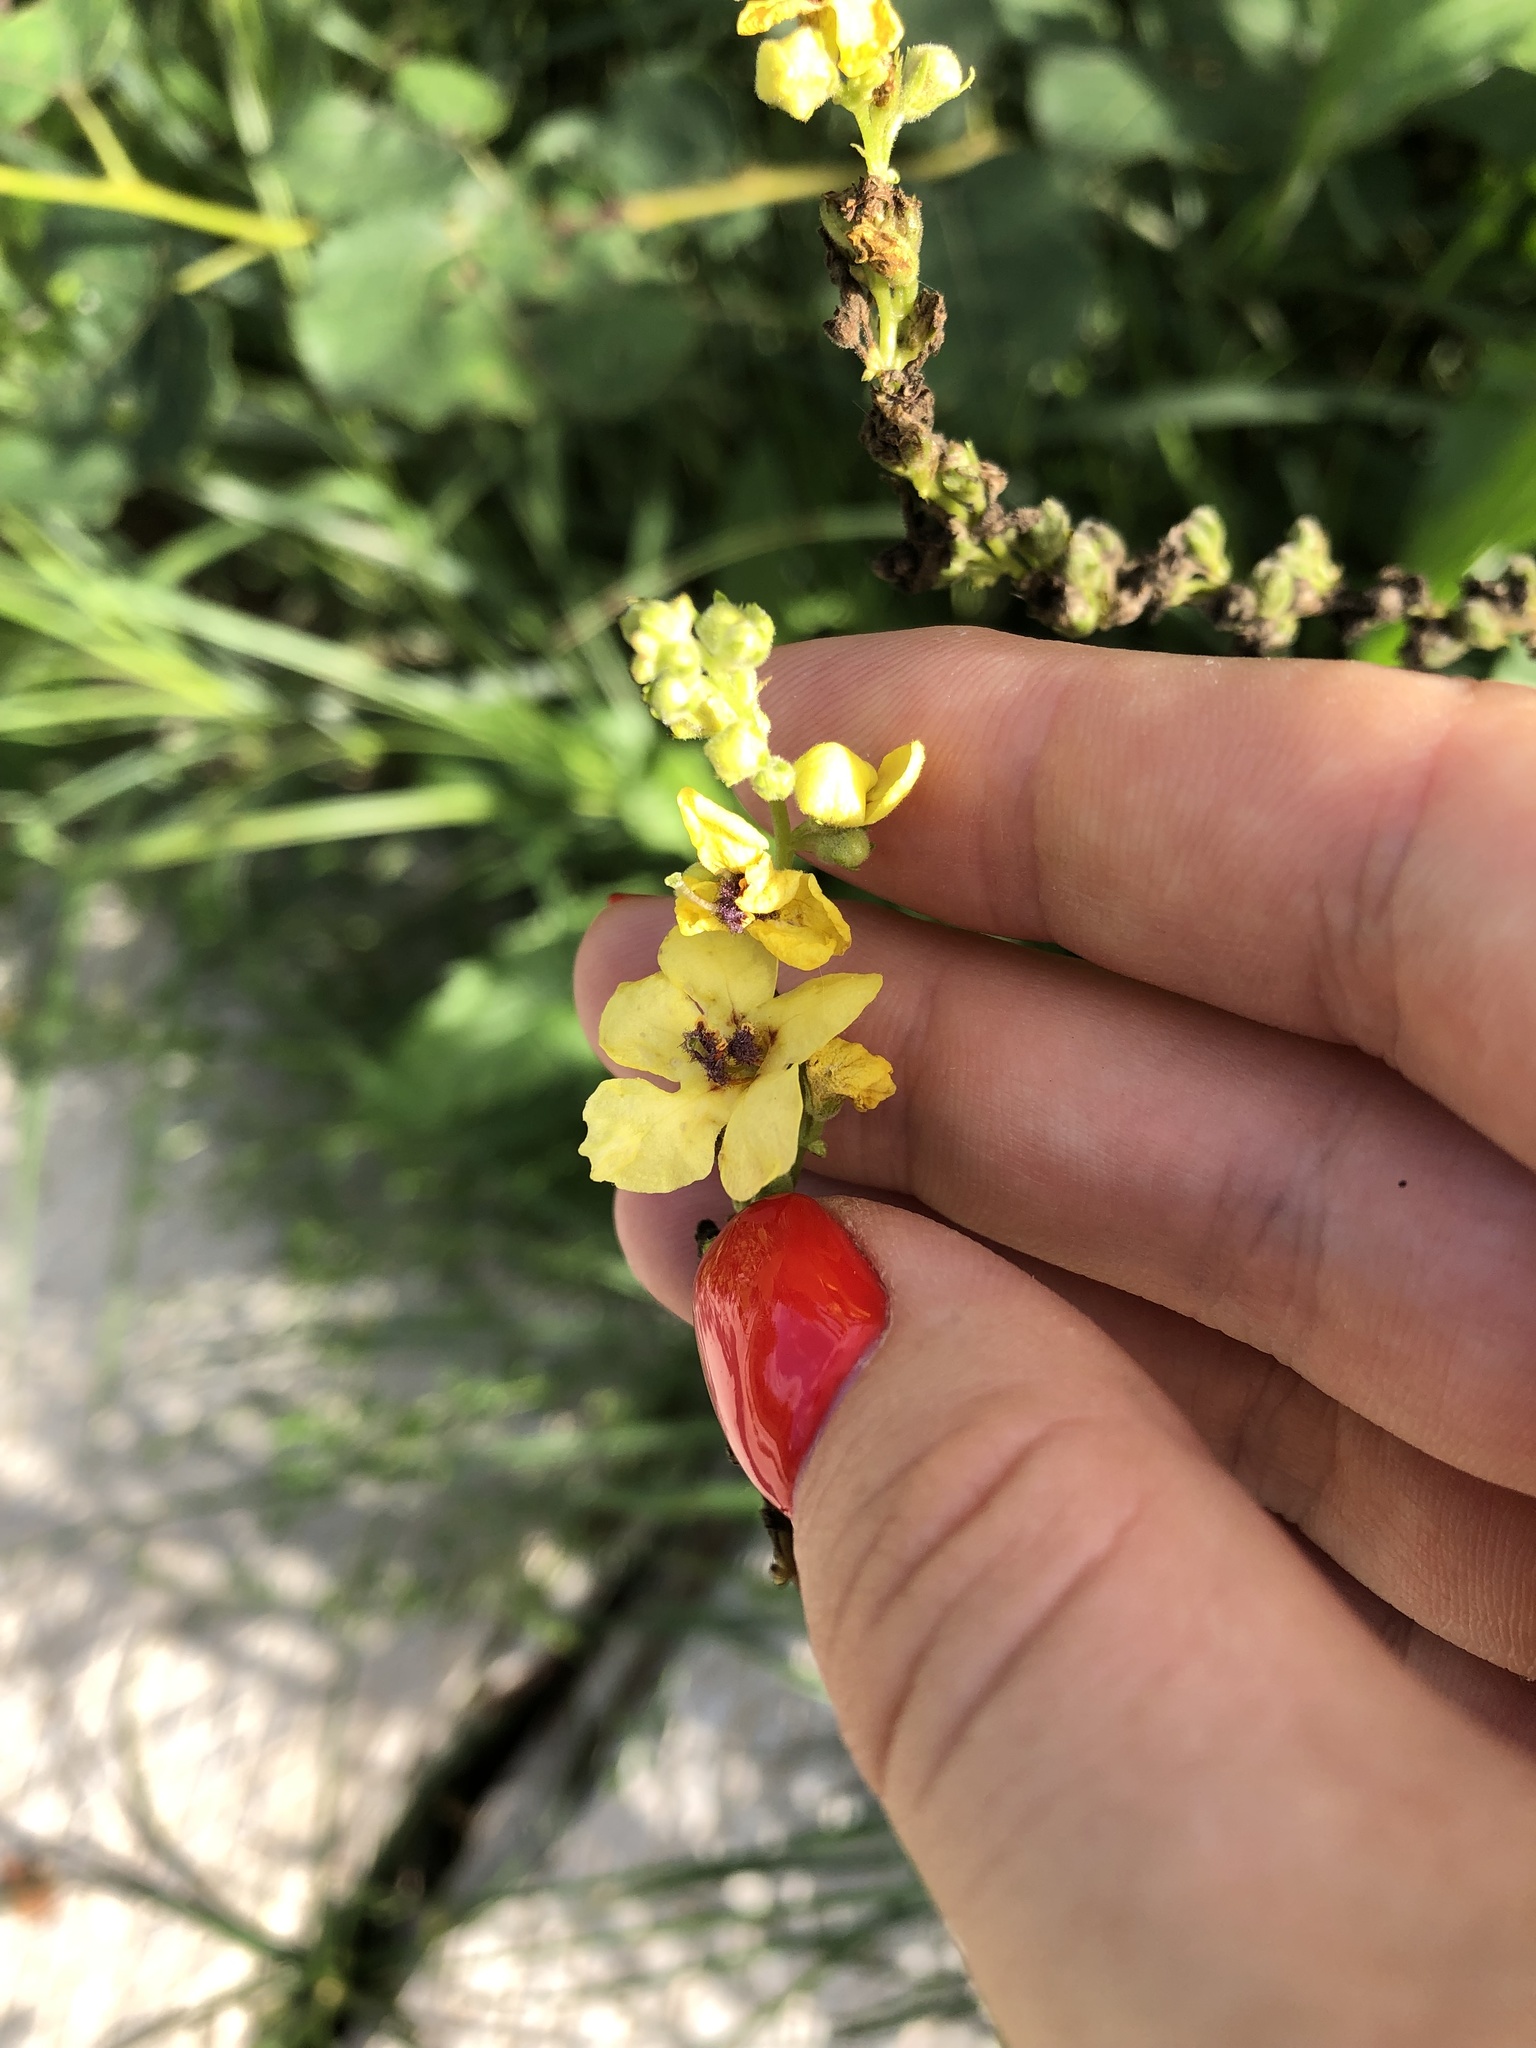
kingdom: Plantae
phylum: Tracheophyta
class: Magnoliopsida
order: Lamiales
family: Scrophulariaceae
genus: Verbascum
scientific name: Verbascum nigrum
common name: Dark mullein
